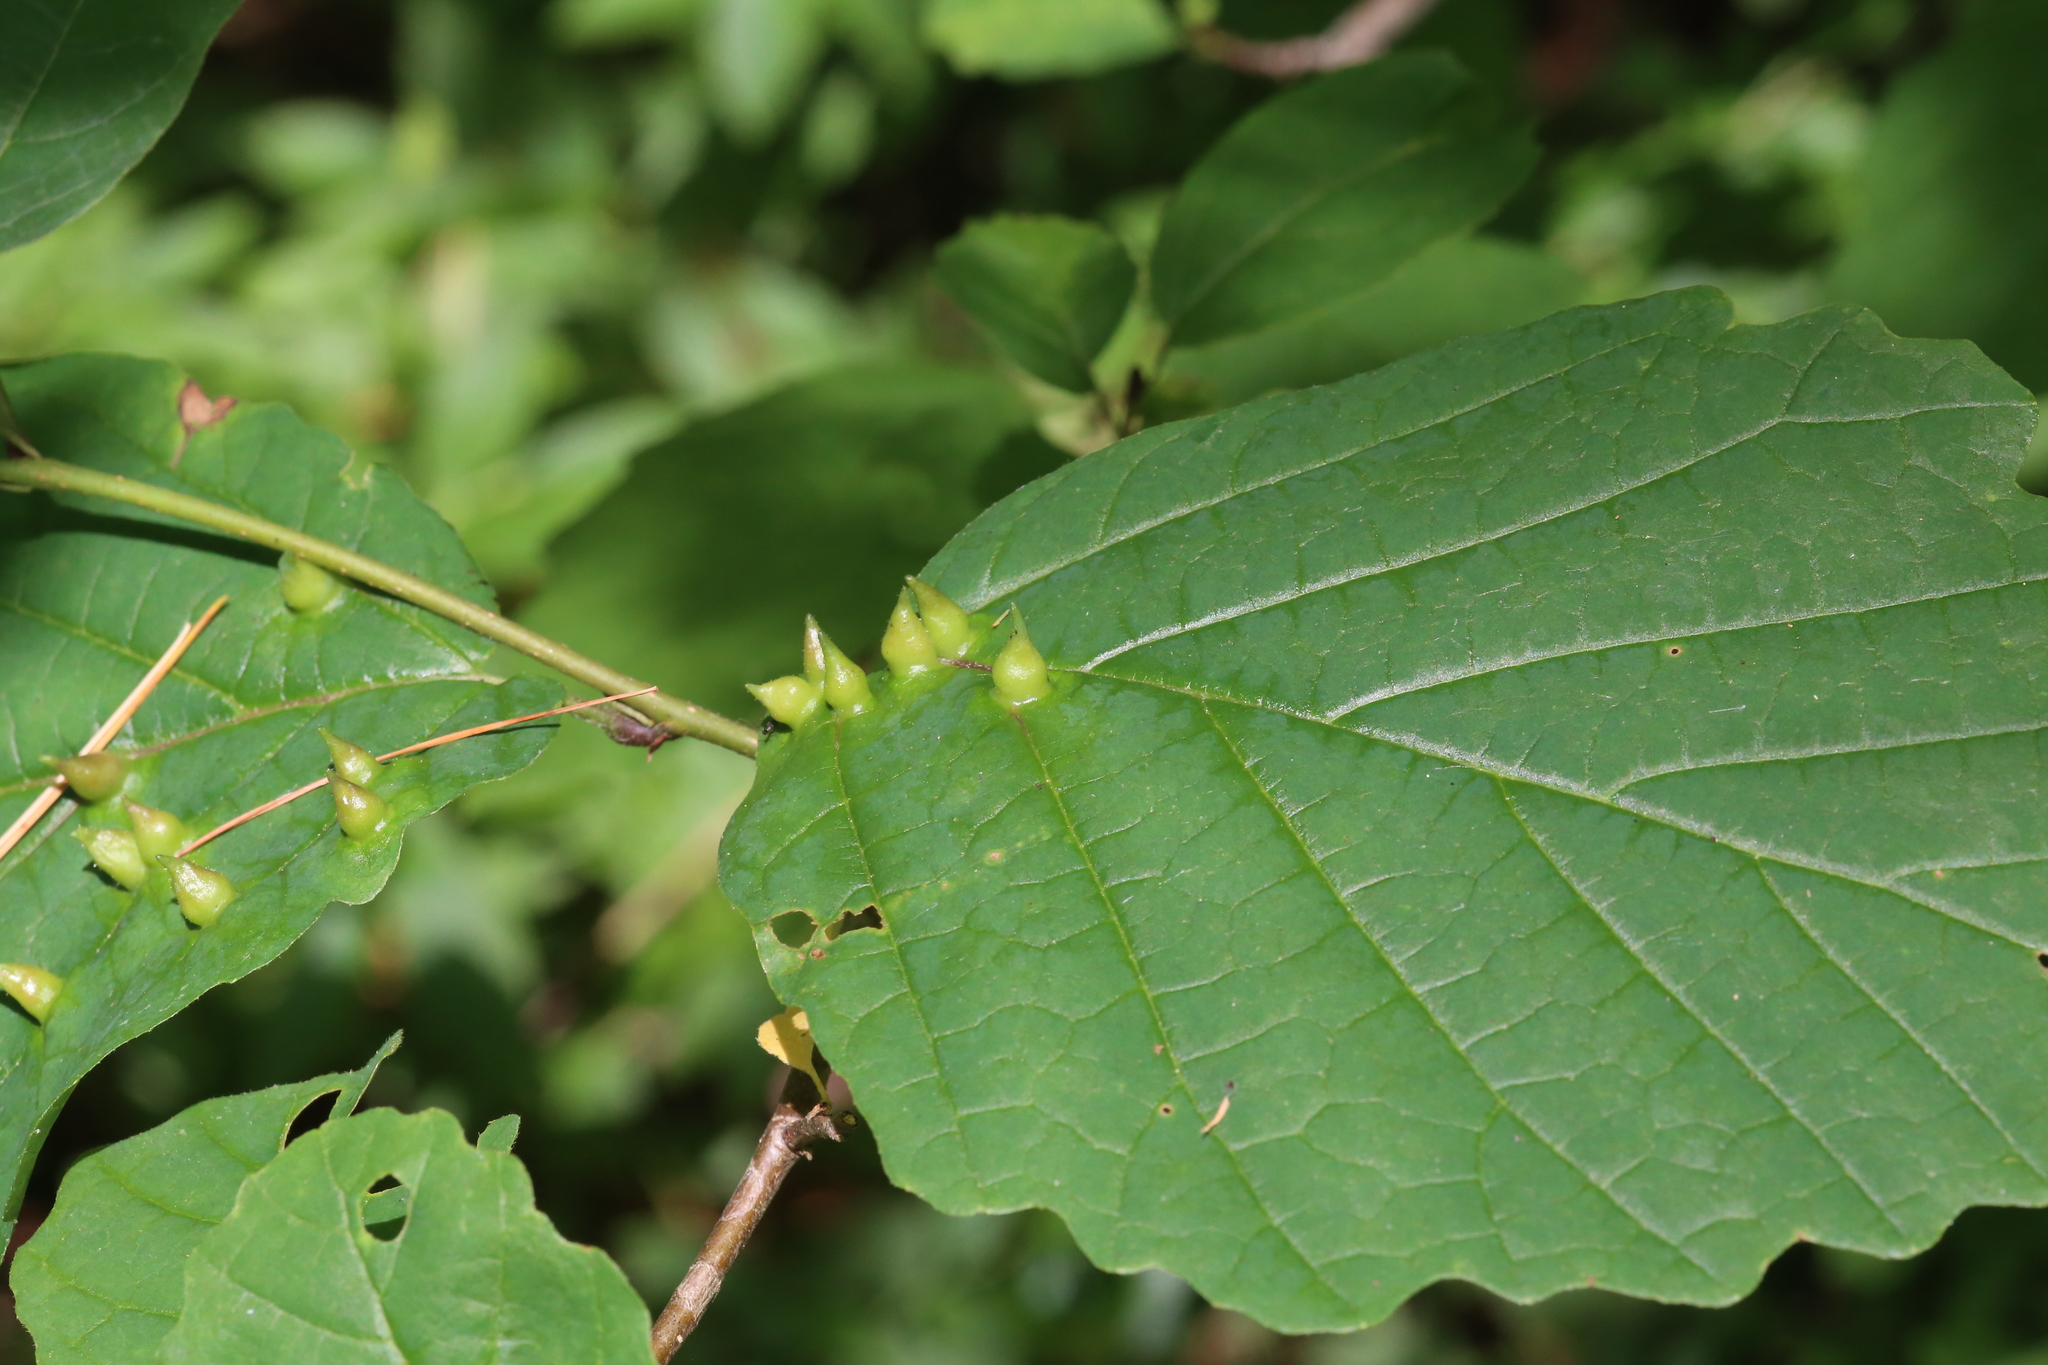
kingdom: Animalia
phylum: Arthropoda
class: Insecta
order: Hemiptera
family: Aphididae
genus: Hormaphis
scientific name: Hormaphis hamamelidis
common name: Witch-hazel cone gall aphid
